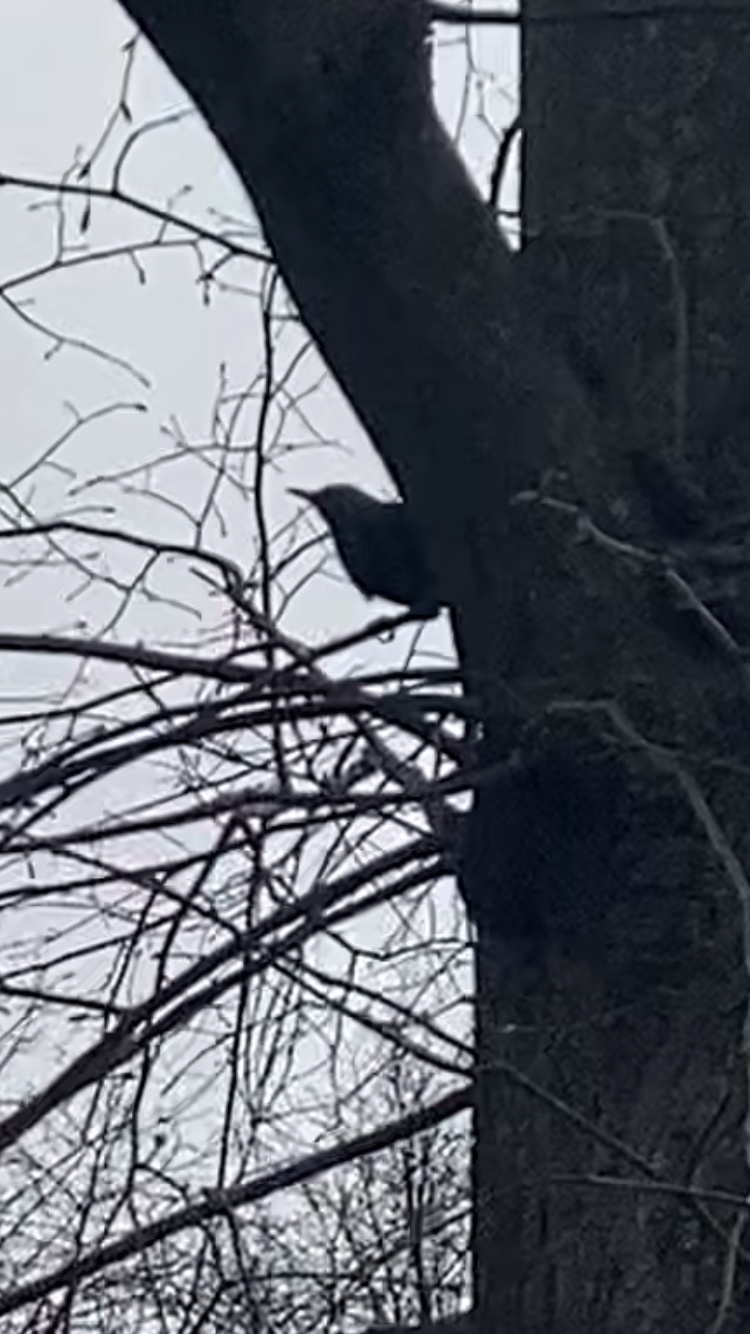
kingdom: Animalia
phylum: Chordata
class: Aves
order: Passeriformes
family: Turdidae
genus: Turdus
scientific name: Turdus merula
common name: Common blackbird
